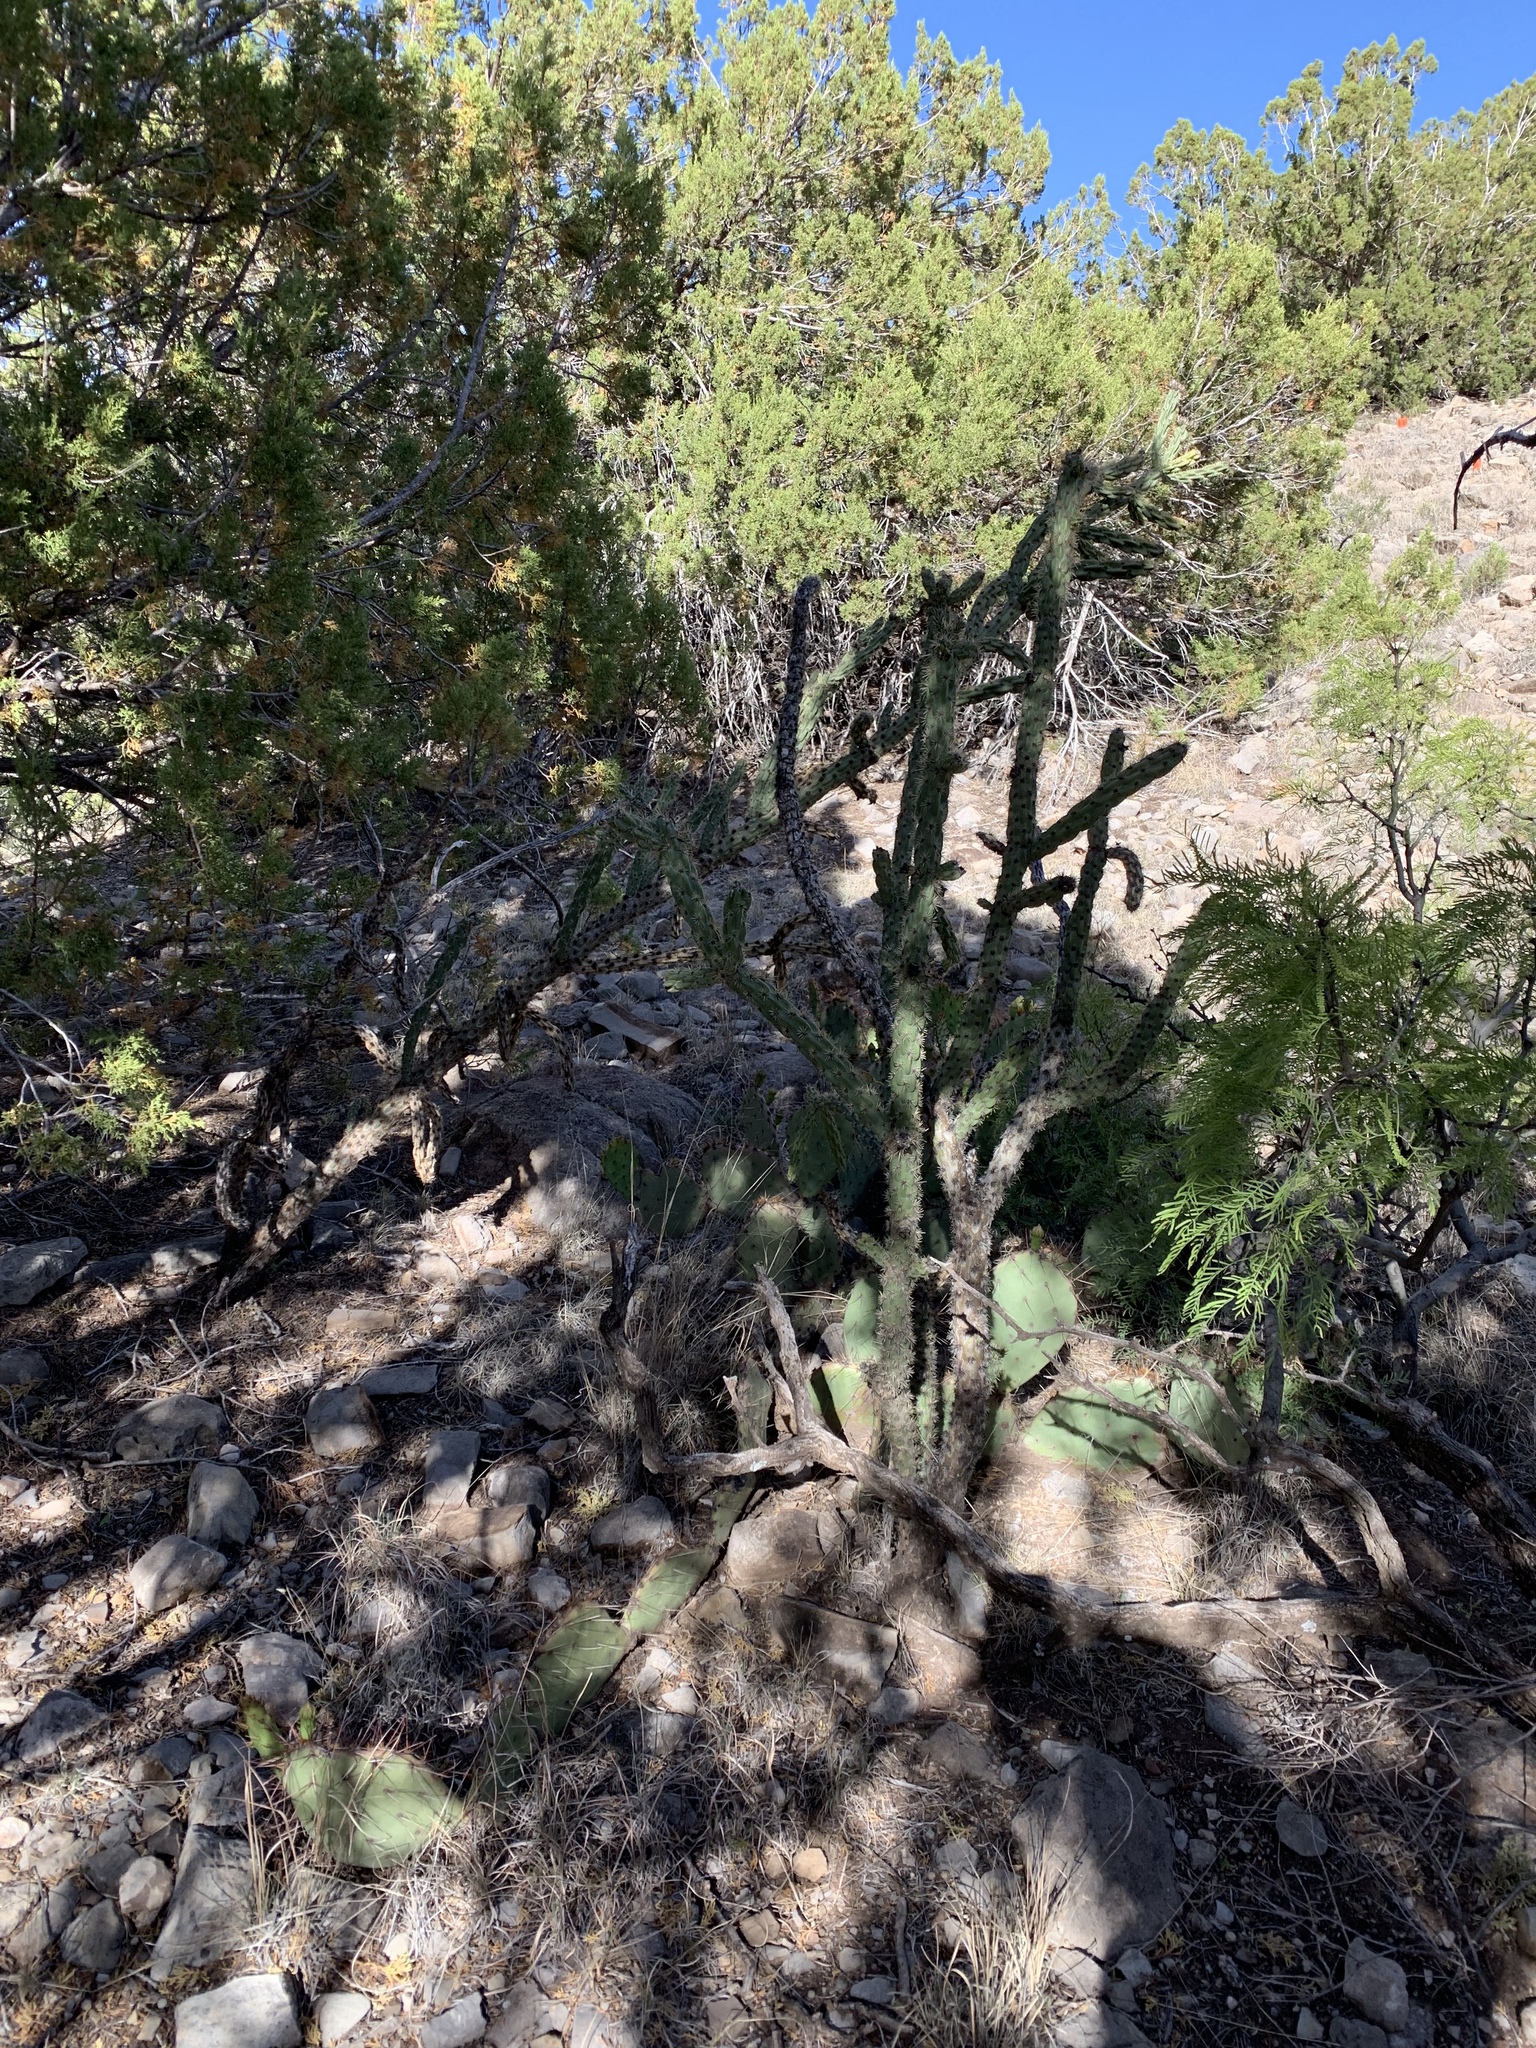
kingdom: Plantae
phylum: Tracheophyta
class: Magnoliopsida
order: Caryophyllales
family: Cactaceae
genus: Cylindropuntia
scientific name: Cylindropuntia imbricata
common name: Candelabrum cactus
